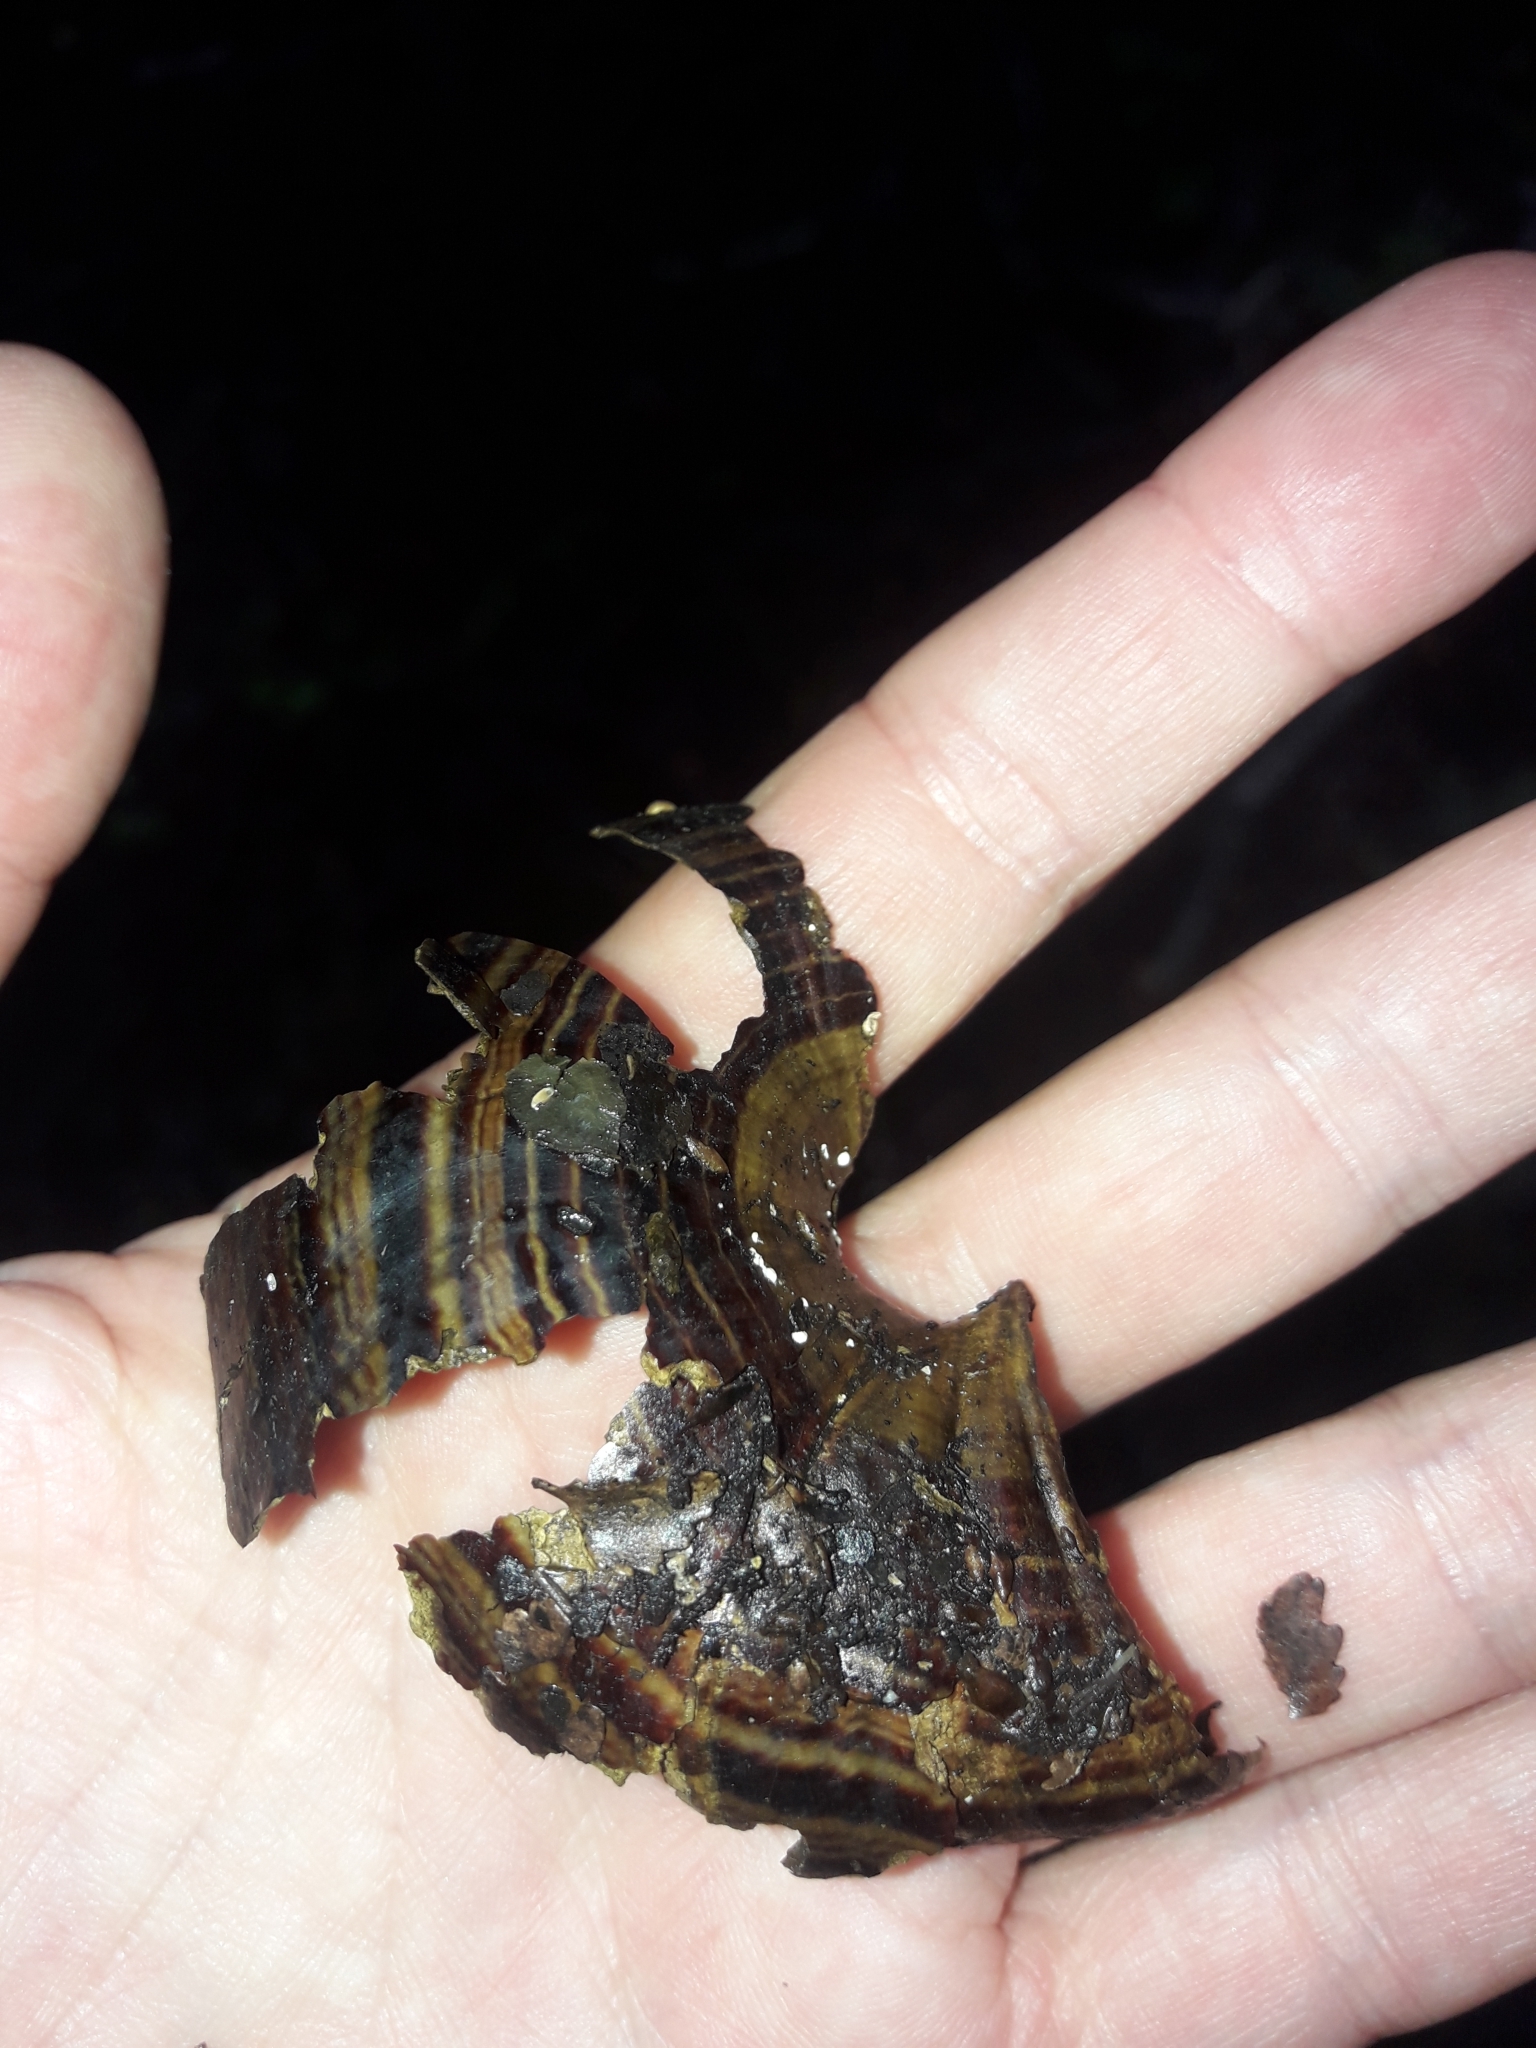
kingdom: Animalia
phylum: Mollusca
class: Gastropoda
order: Stylommatophora
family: Rhytididae
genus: Powelliphanta
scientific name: Powelliphanta hochstetteri
